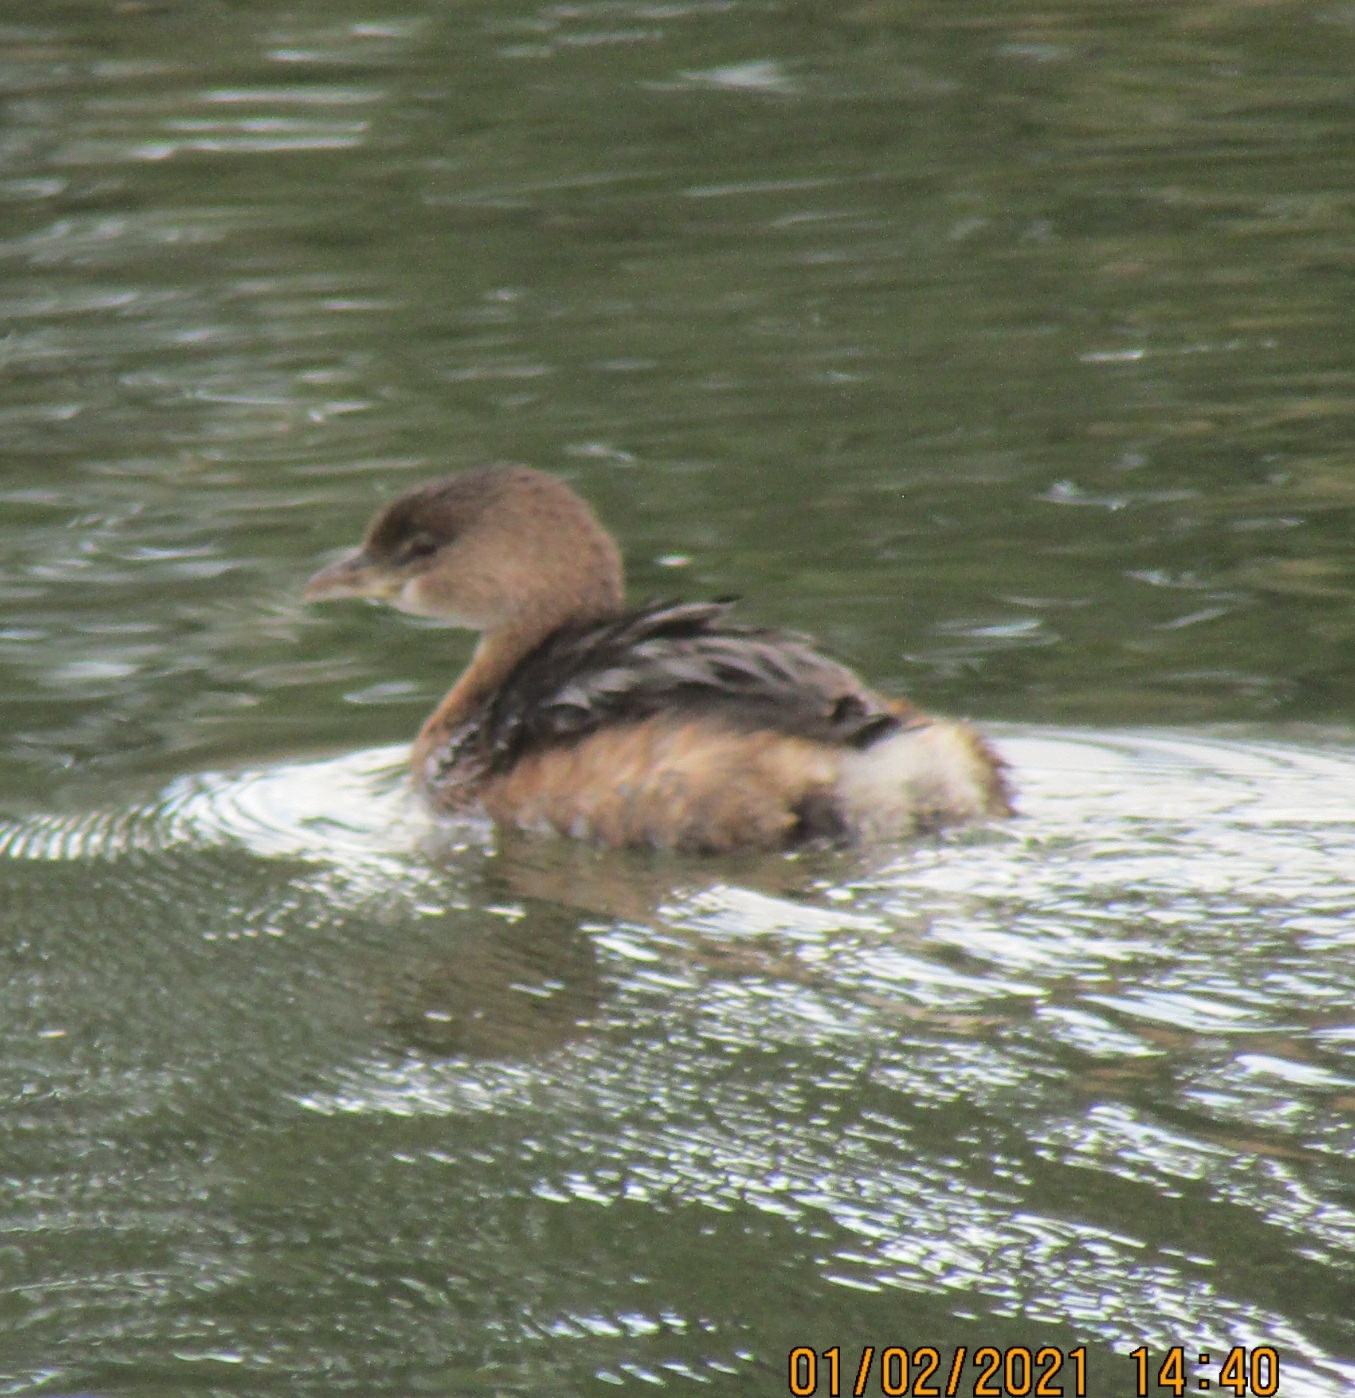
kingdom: Animalia
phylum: Chordata
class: Aves
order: Podicipediformes
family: Podicipedidae
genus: Podilymbus
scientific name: Podilymbus podiceps
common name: Pied-billed grebe
